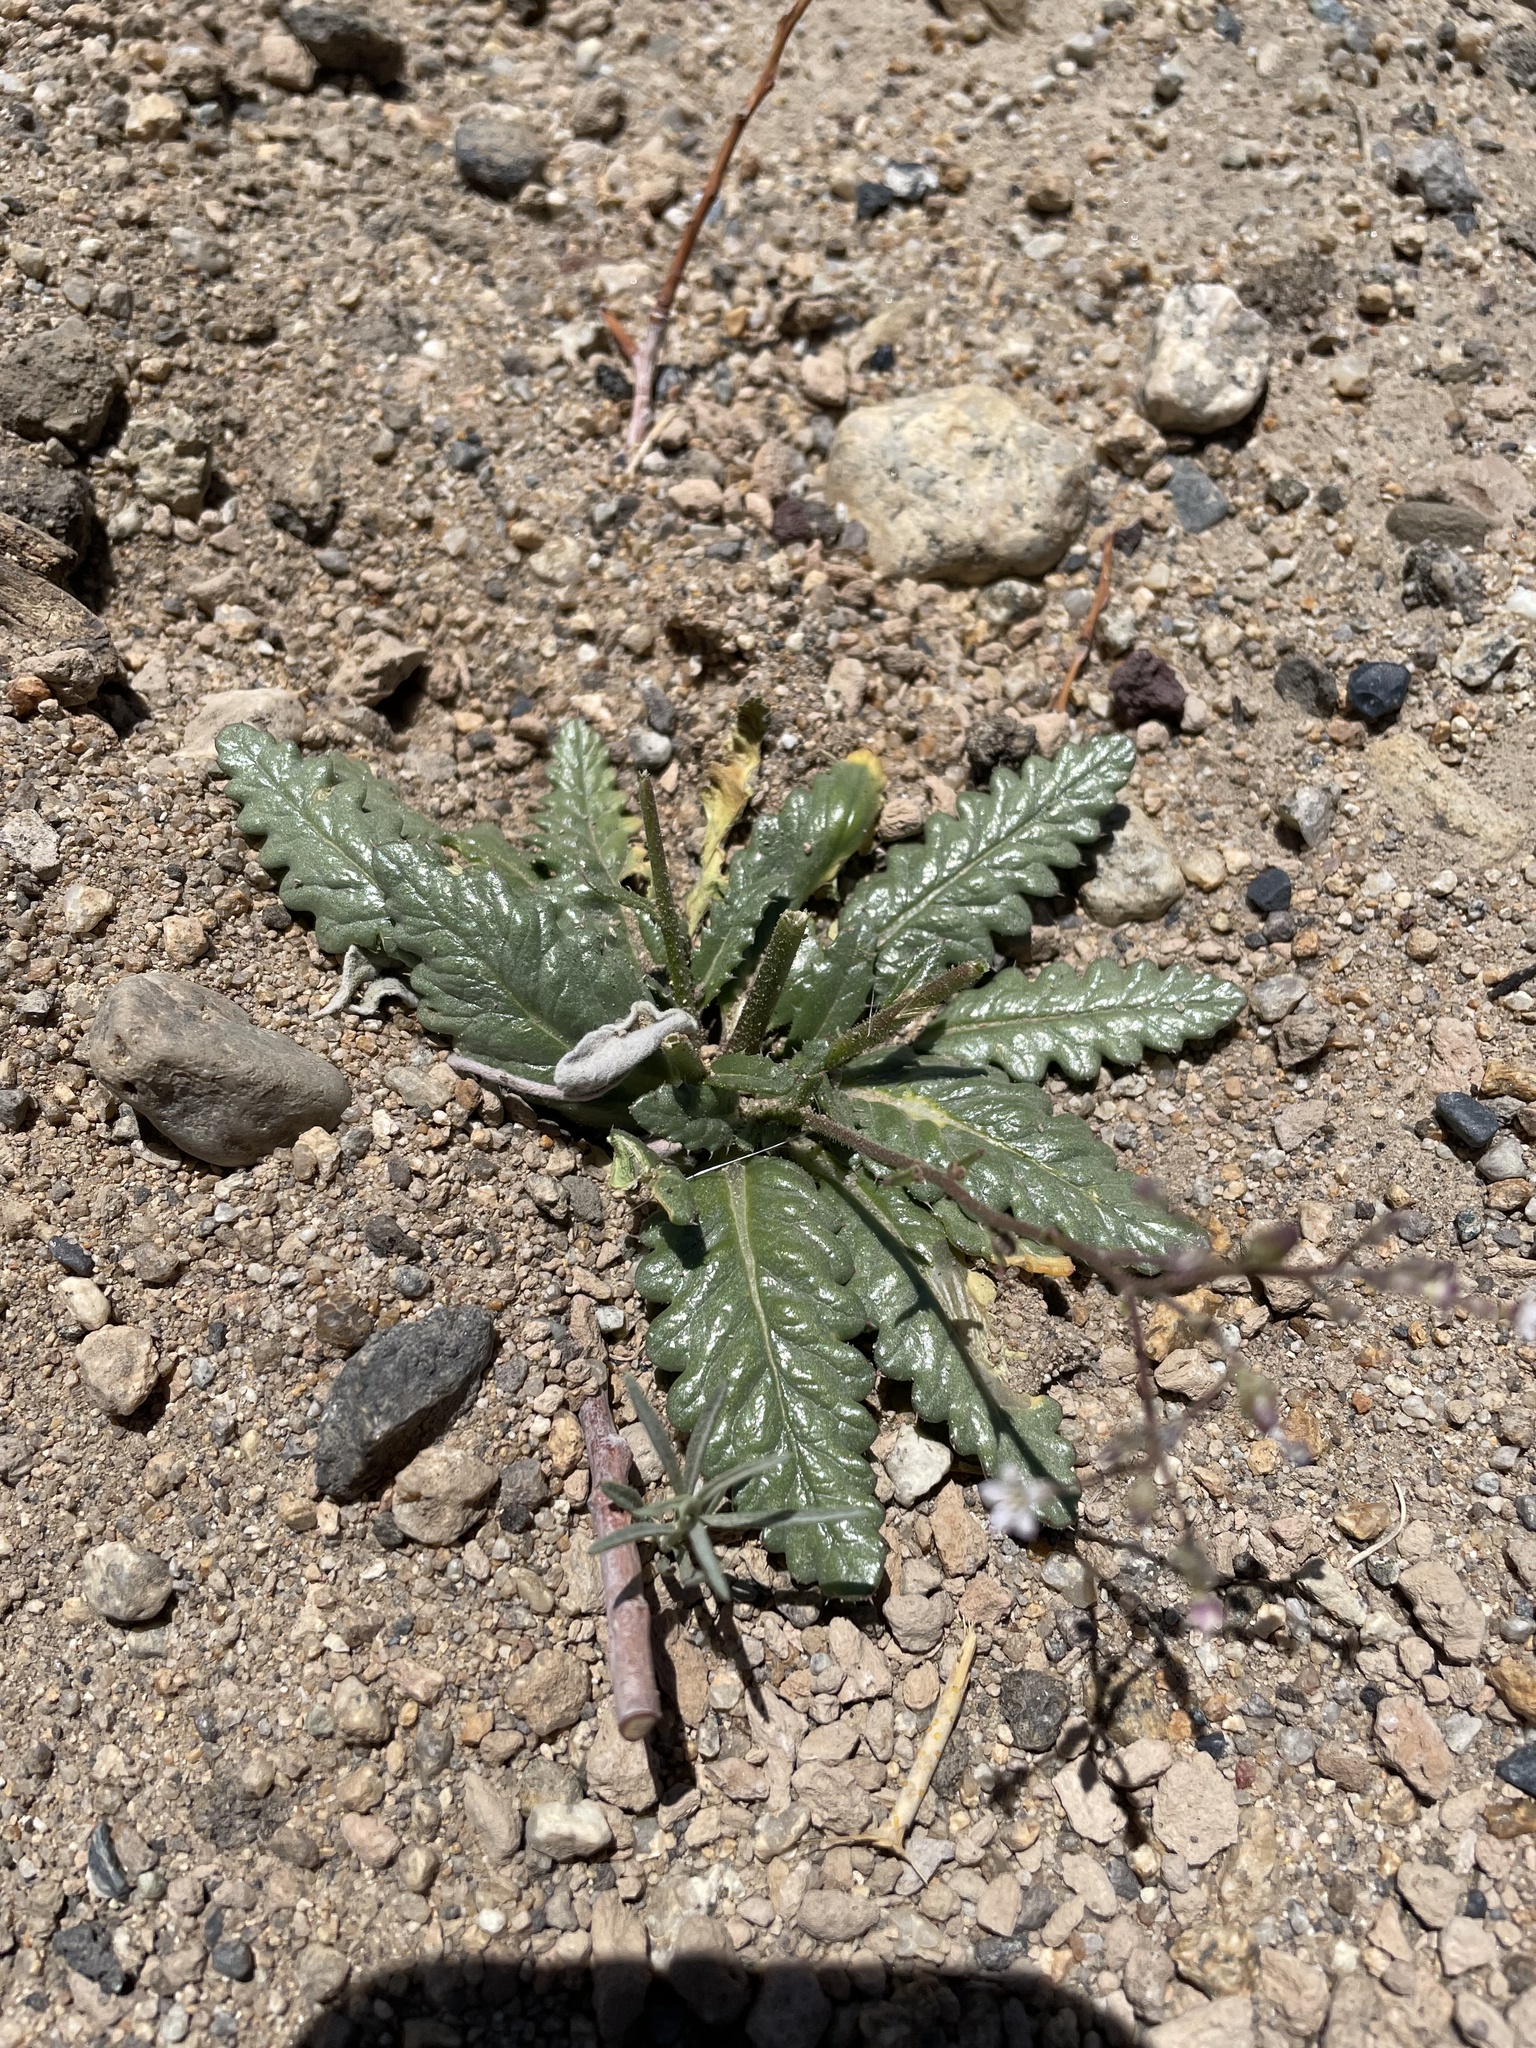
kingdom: Plantae
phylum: Tracheophyta
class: Magnoliopsida
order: Ericales
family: Polemoniaceae
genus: Aliciella
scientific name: Aliciella lottiae
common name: Lott's gilia
